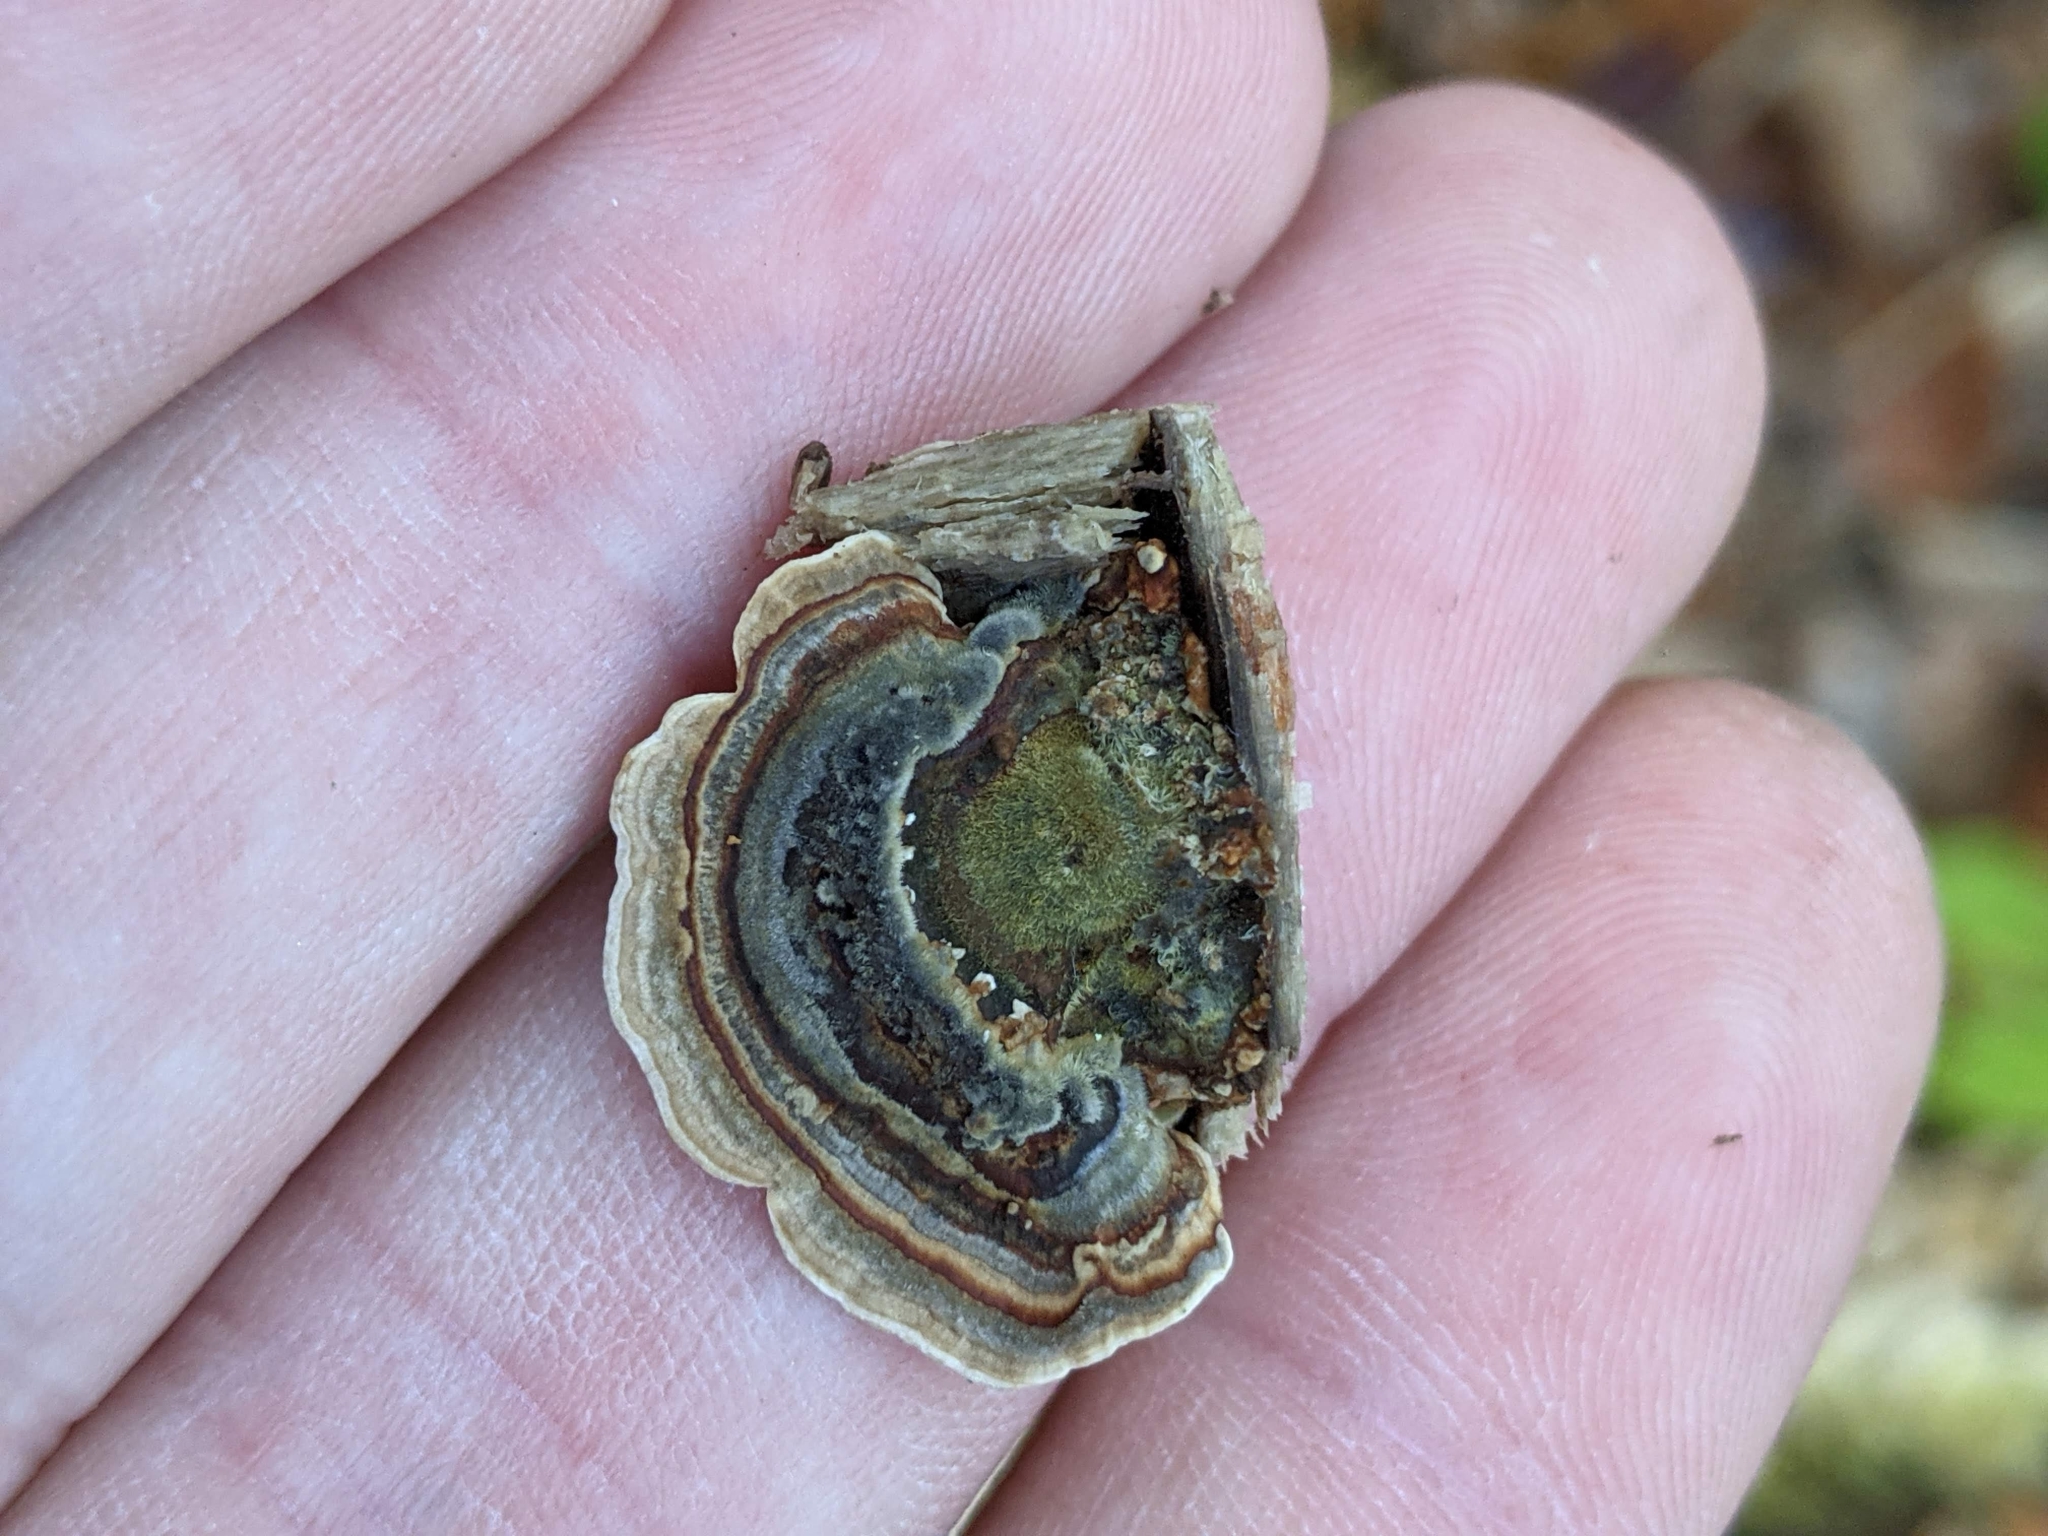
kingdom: Fungi
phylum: Basidiomycota
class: Agaricomycetes
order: Polyporales
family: Polyporaceae
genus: Trametes
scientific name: Trametes versicolor
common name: Turkeytail
